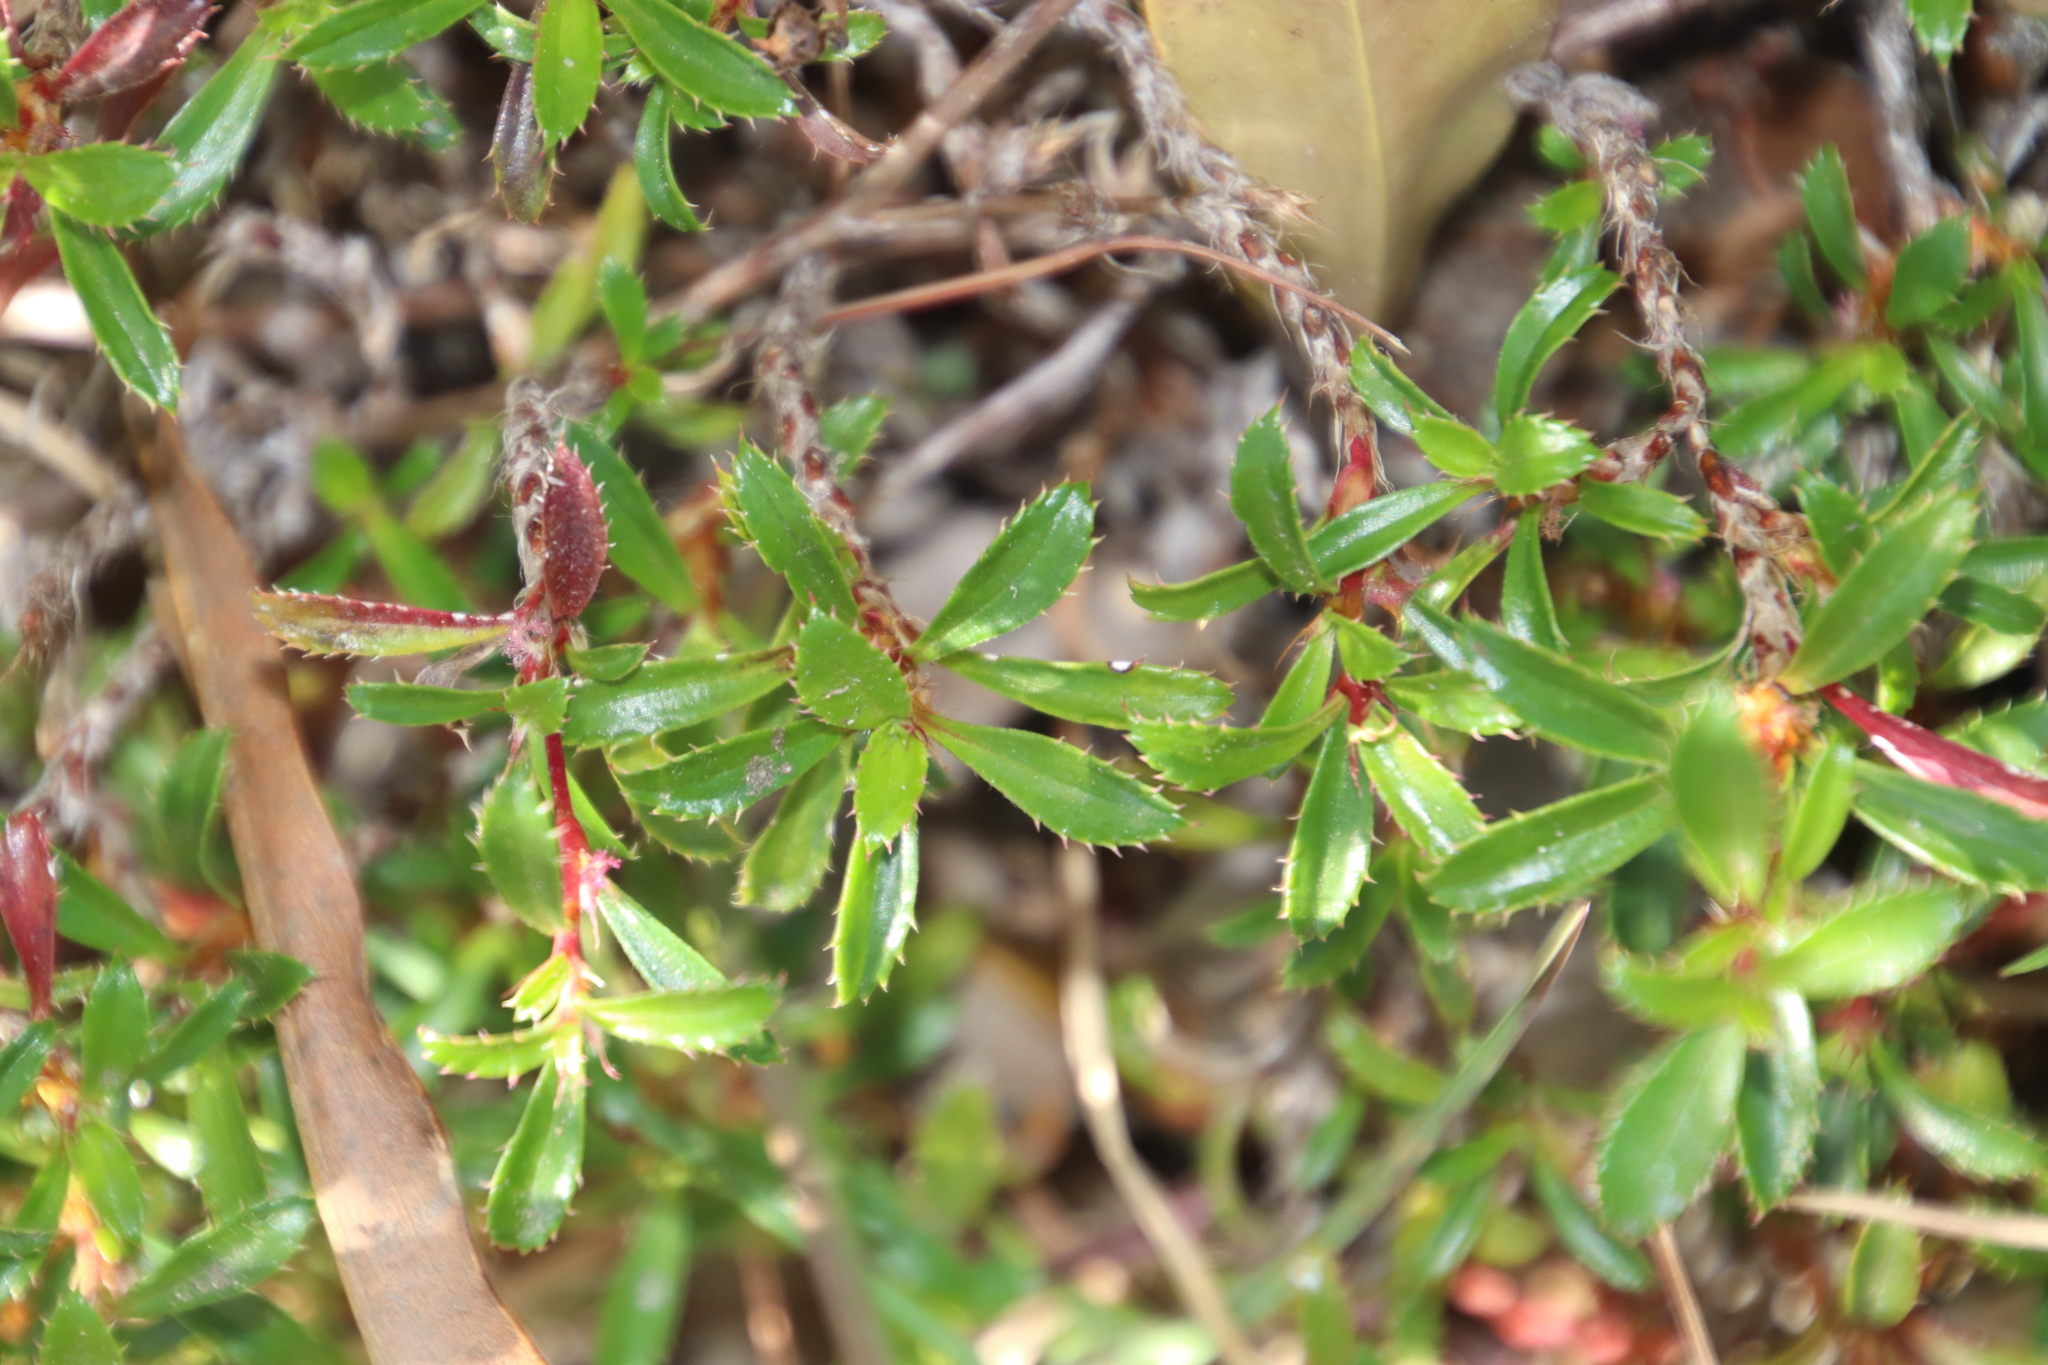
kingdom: Plantae
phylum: Tracheophyta
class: Magnoliopsida
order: Rosales
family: Rosaceae
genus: Cliffortia
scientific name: Cliffortia ferruginea
